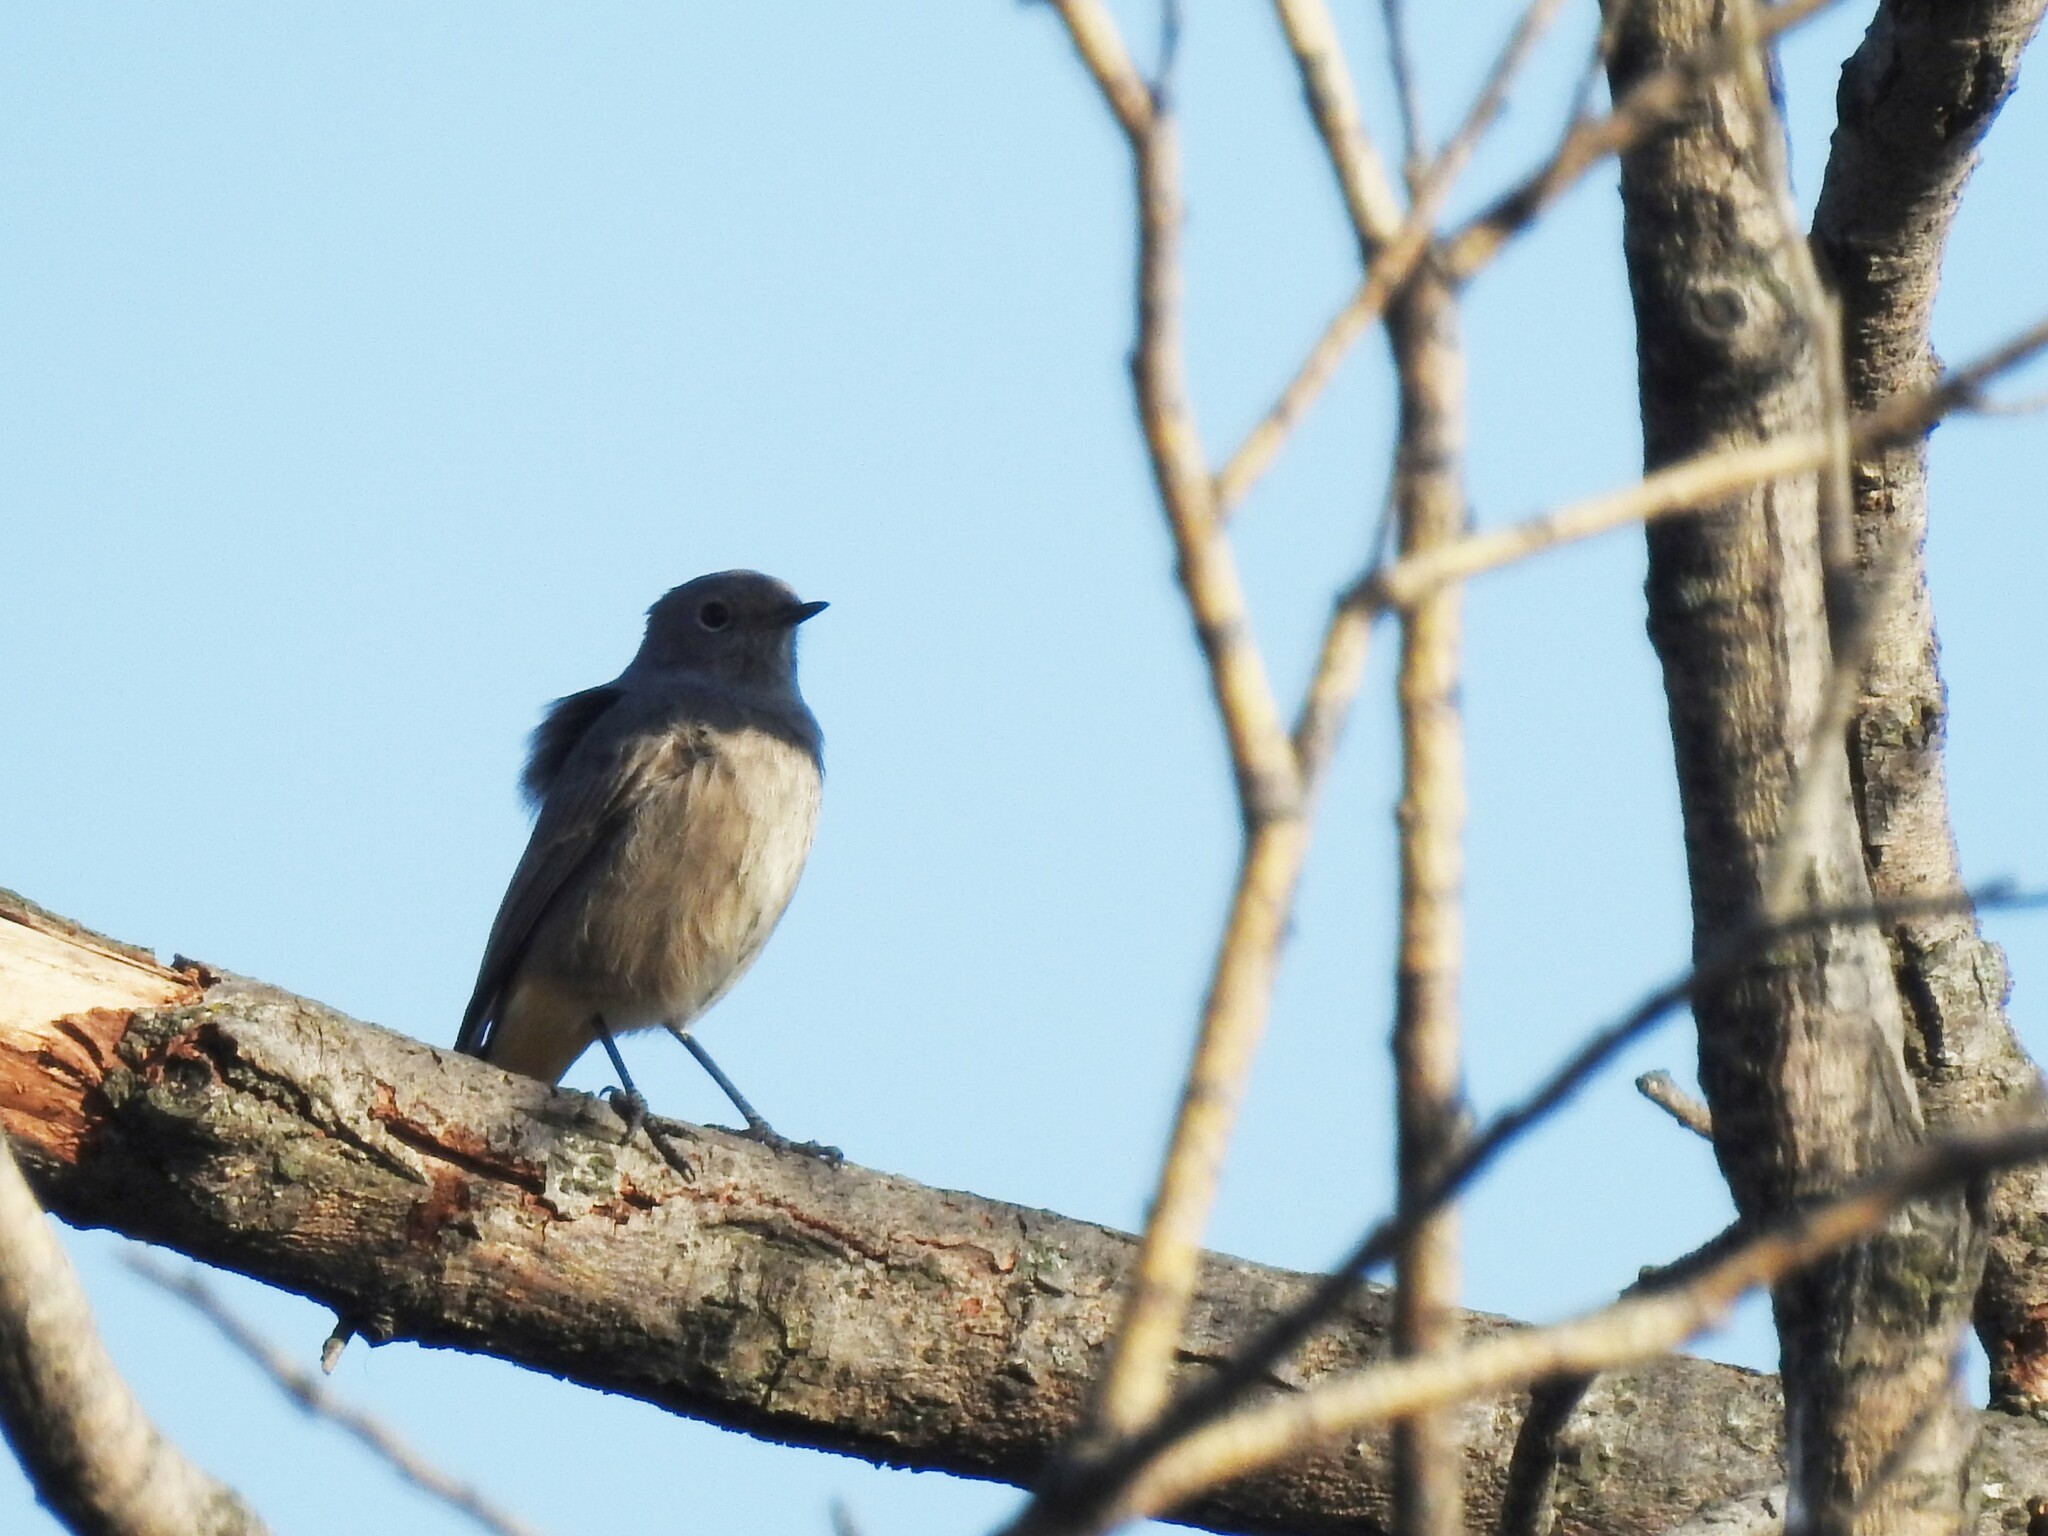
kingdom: Animalia
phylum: Chordata
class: Aves
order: Passeriformes
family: Muscicapidae
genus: Phoenicurus
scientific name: Phoenicurus ochruros
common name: Black redstart
